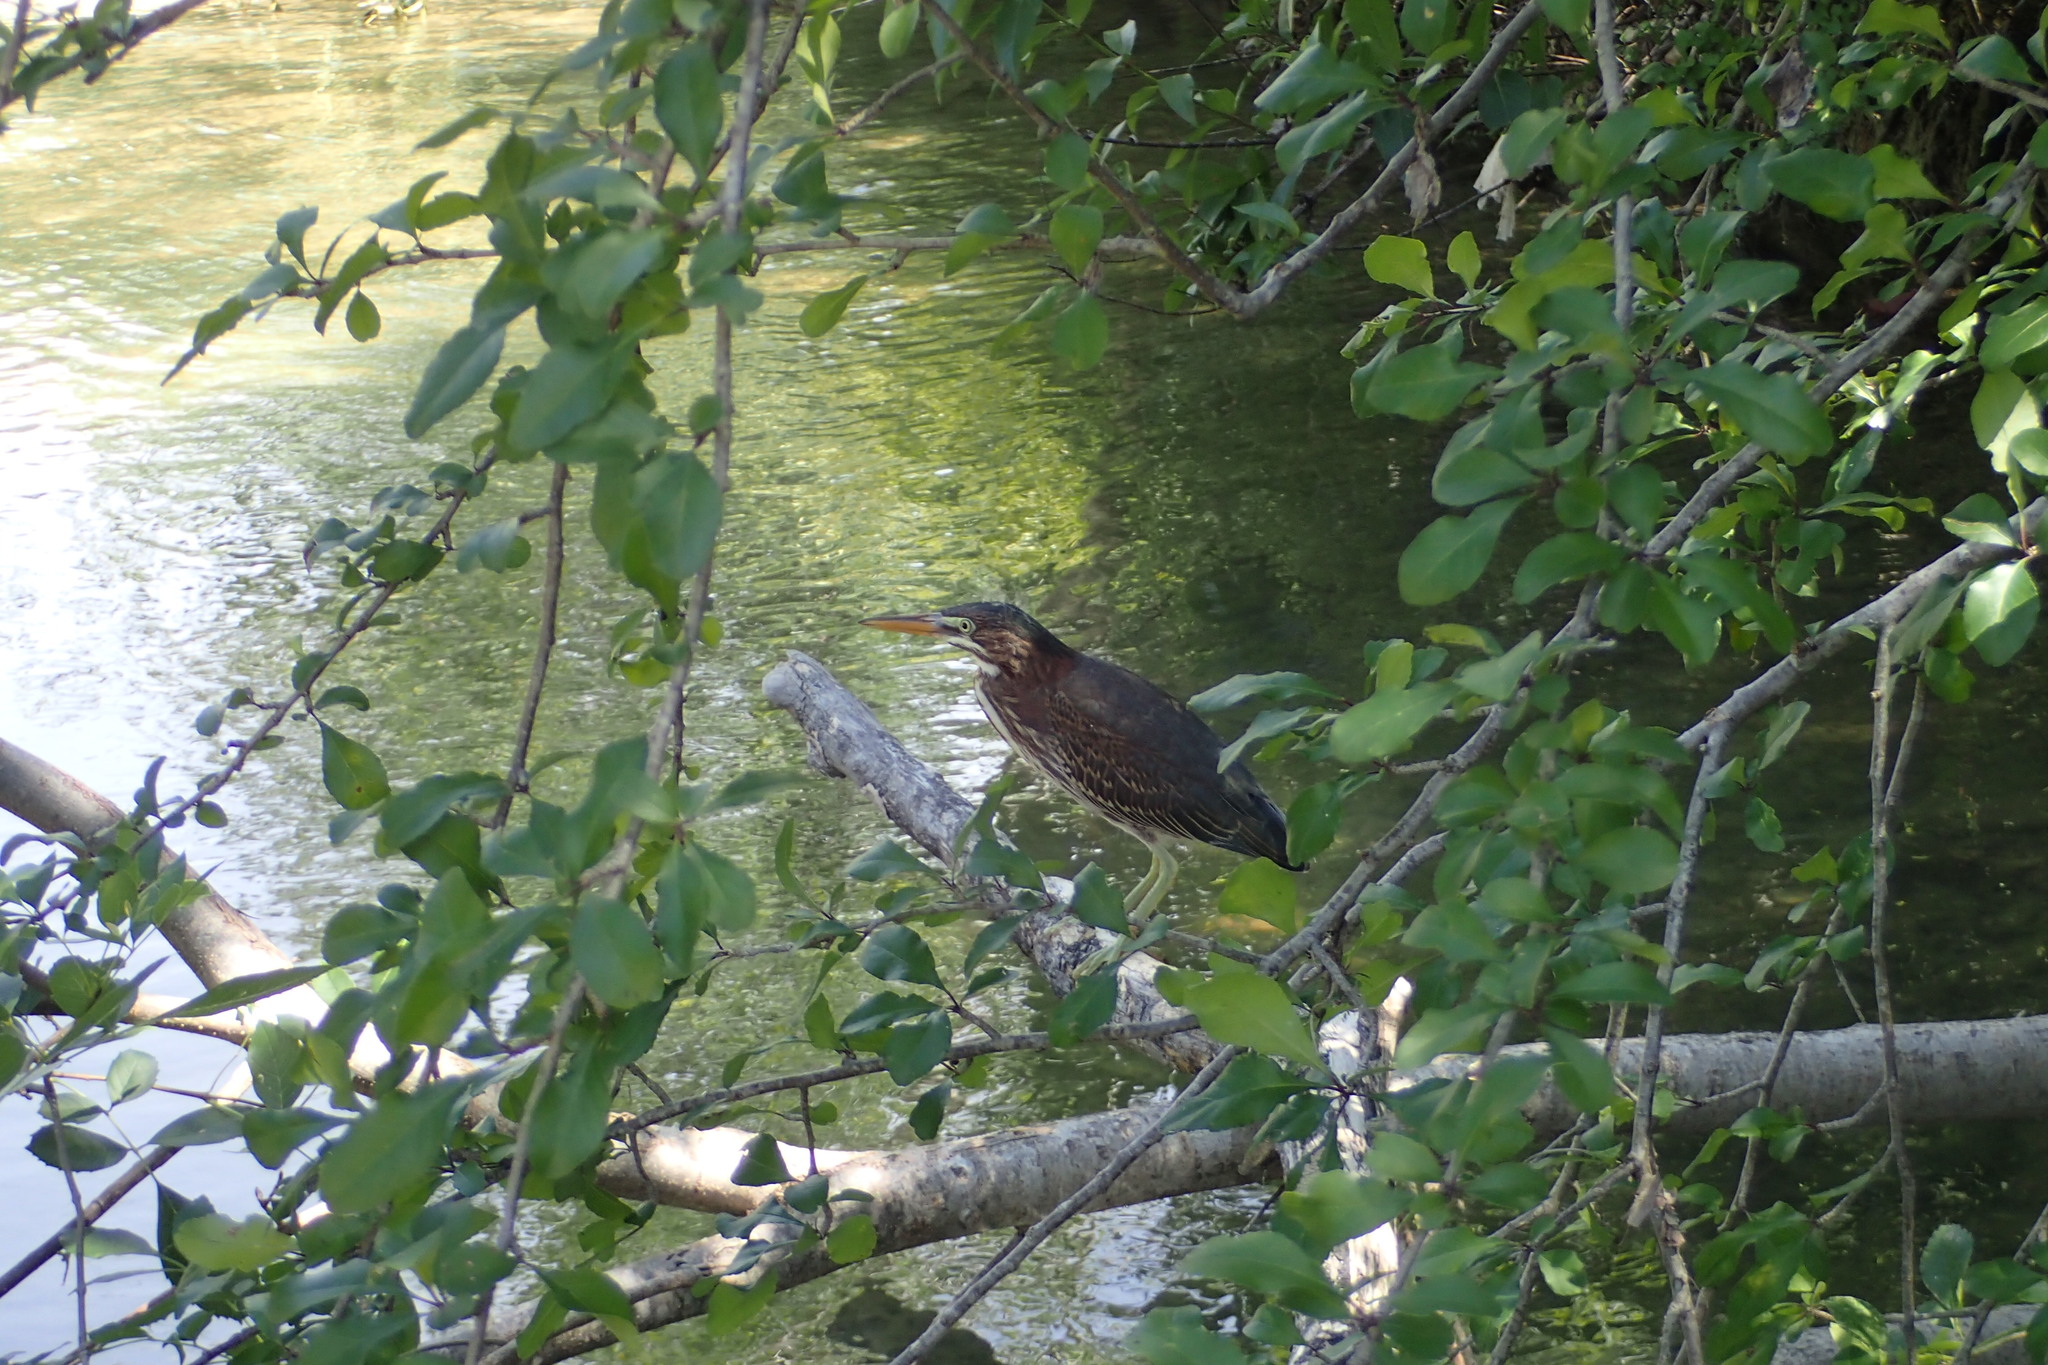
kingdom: Animalia
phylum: Chordata
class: Aves
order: Pelecaniformes
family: Ardeidae
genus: Butorides
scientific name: Butorides virescens
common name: Green heron
